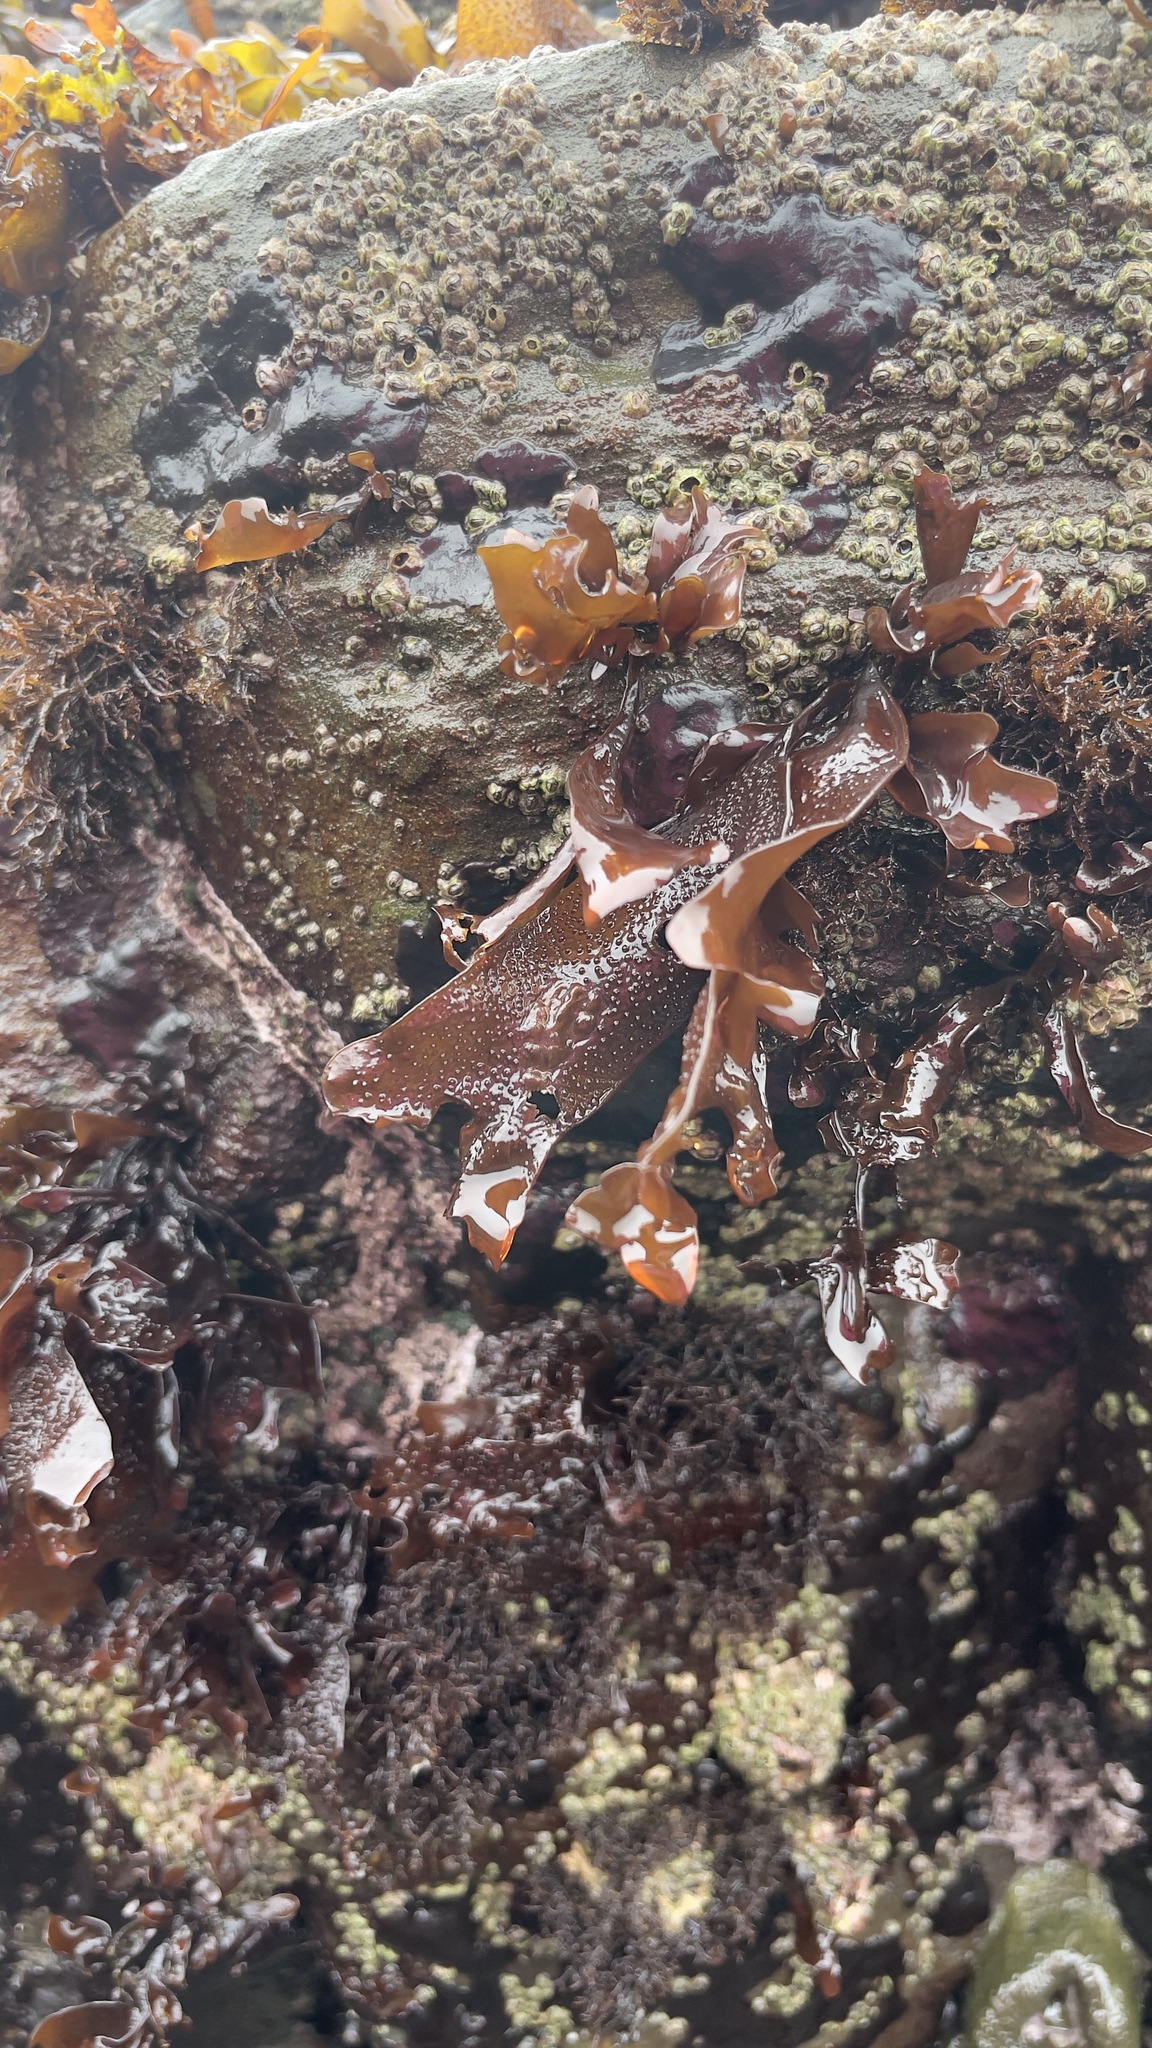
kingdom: Plantae
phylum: Rhodophyta
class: Florideophyceae
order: Gigartinales
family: Phyllophoraceae
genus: Mastocarpus
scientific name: Mastocarpus papillatus
